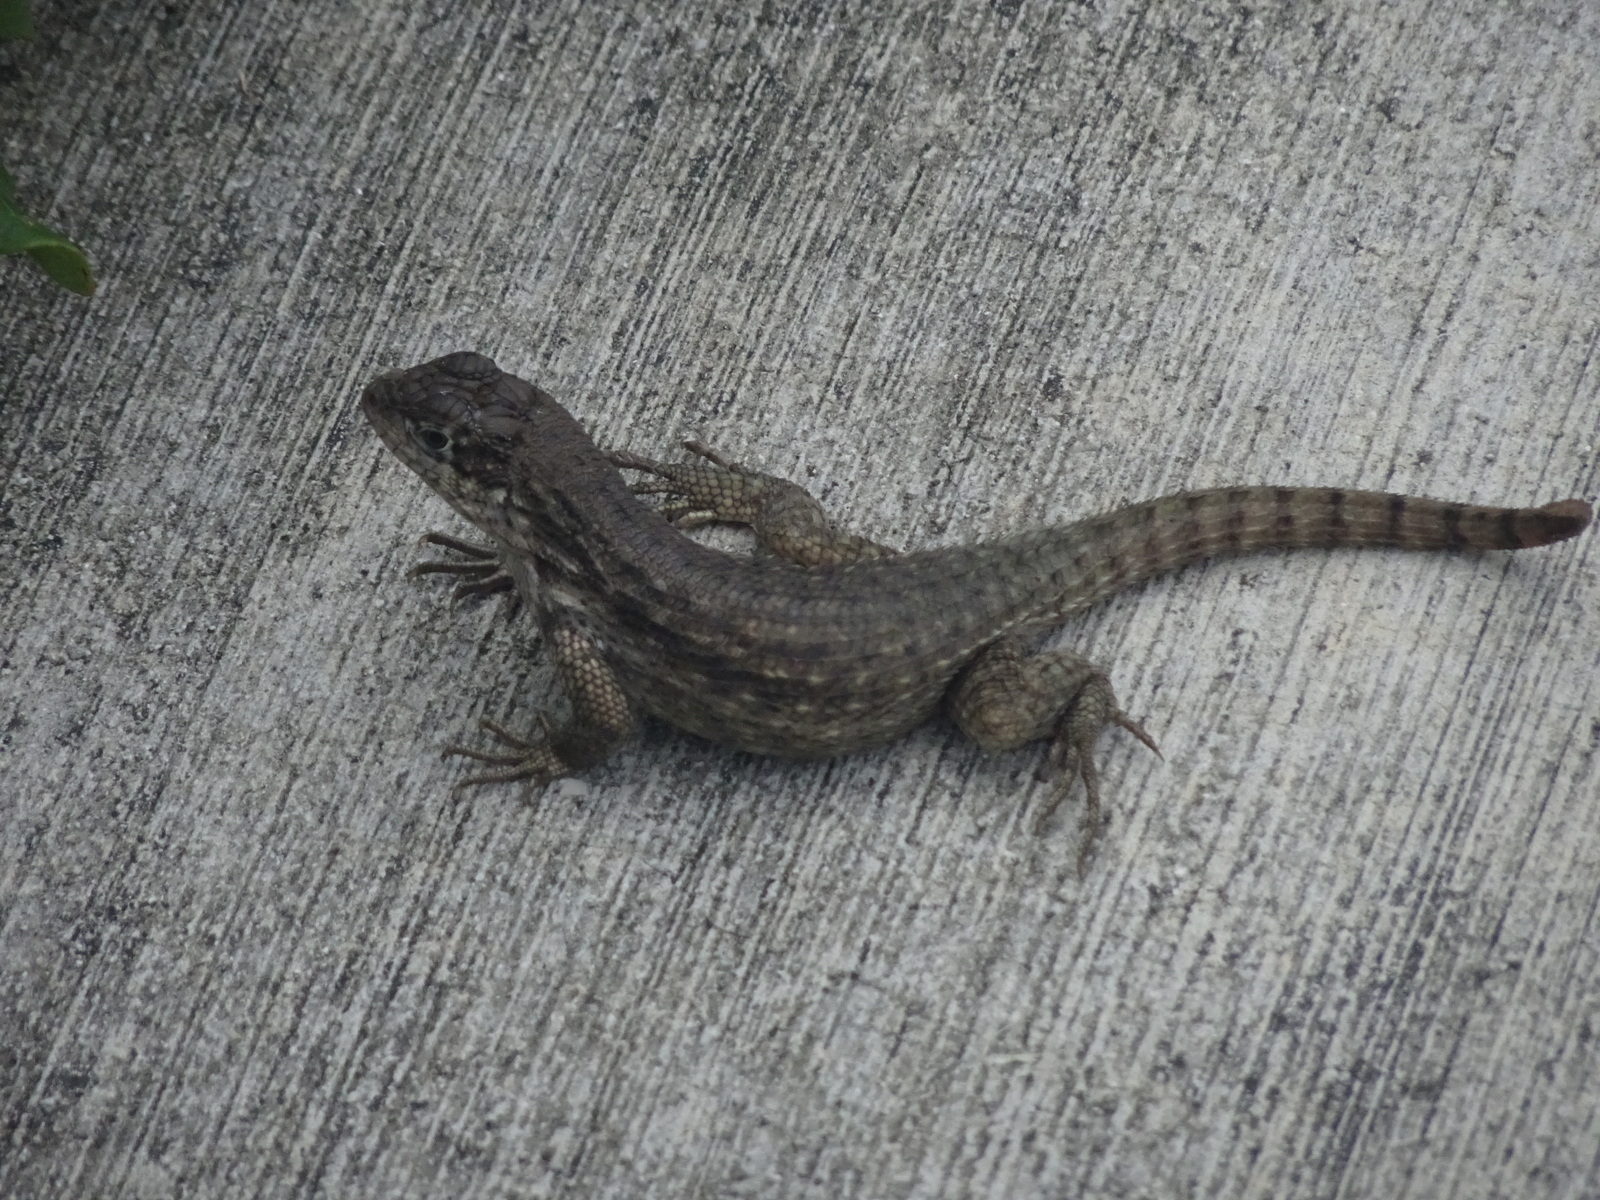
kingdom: Animalia
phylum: Chordata
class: Squamata
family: Leiocephalidae
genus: Leiocephalus
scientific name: Leiocephalus carinatus
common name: Northern curly-tailed lizard
